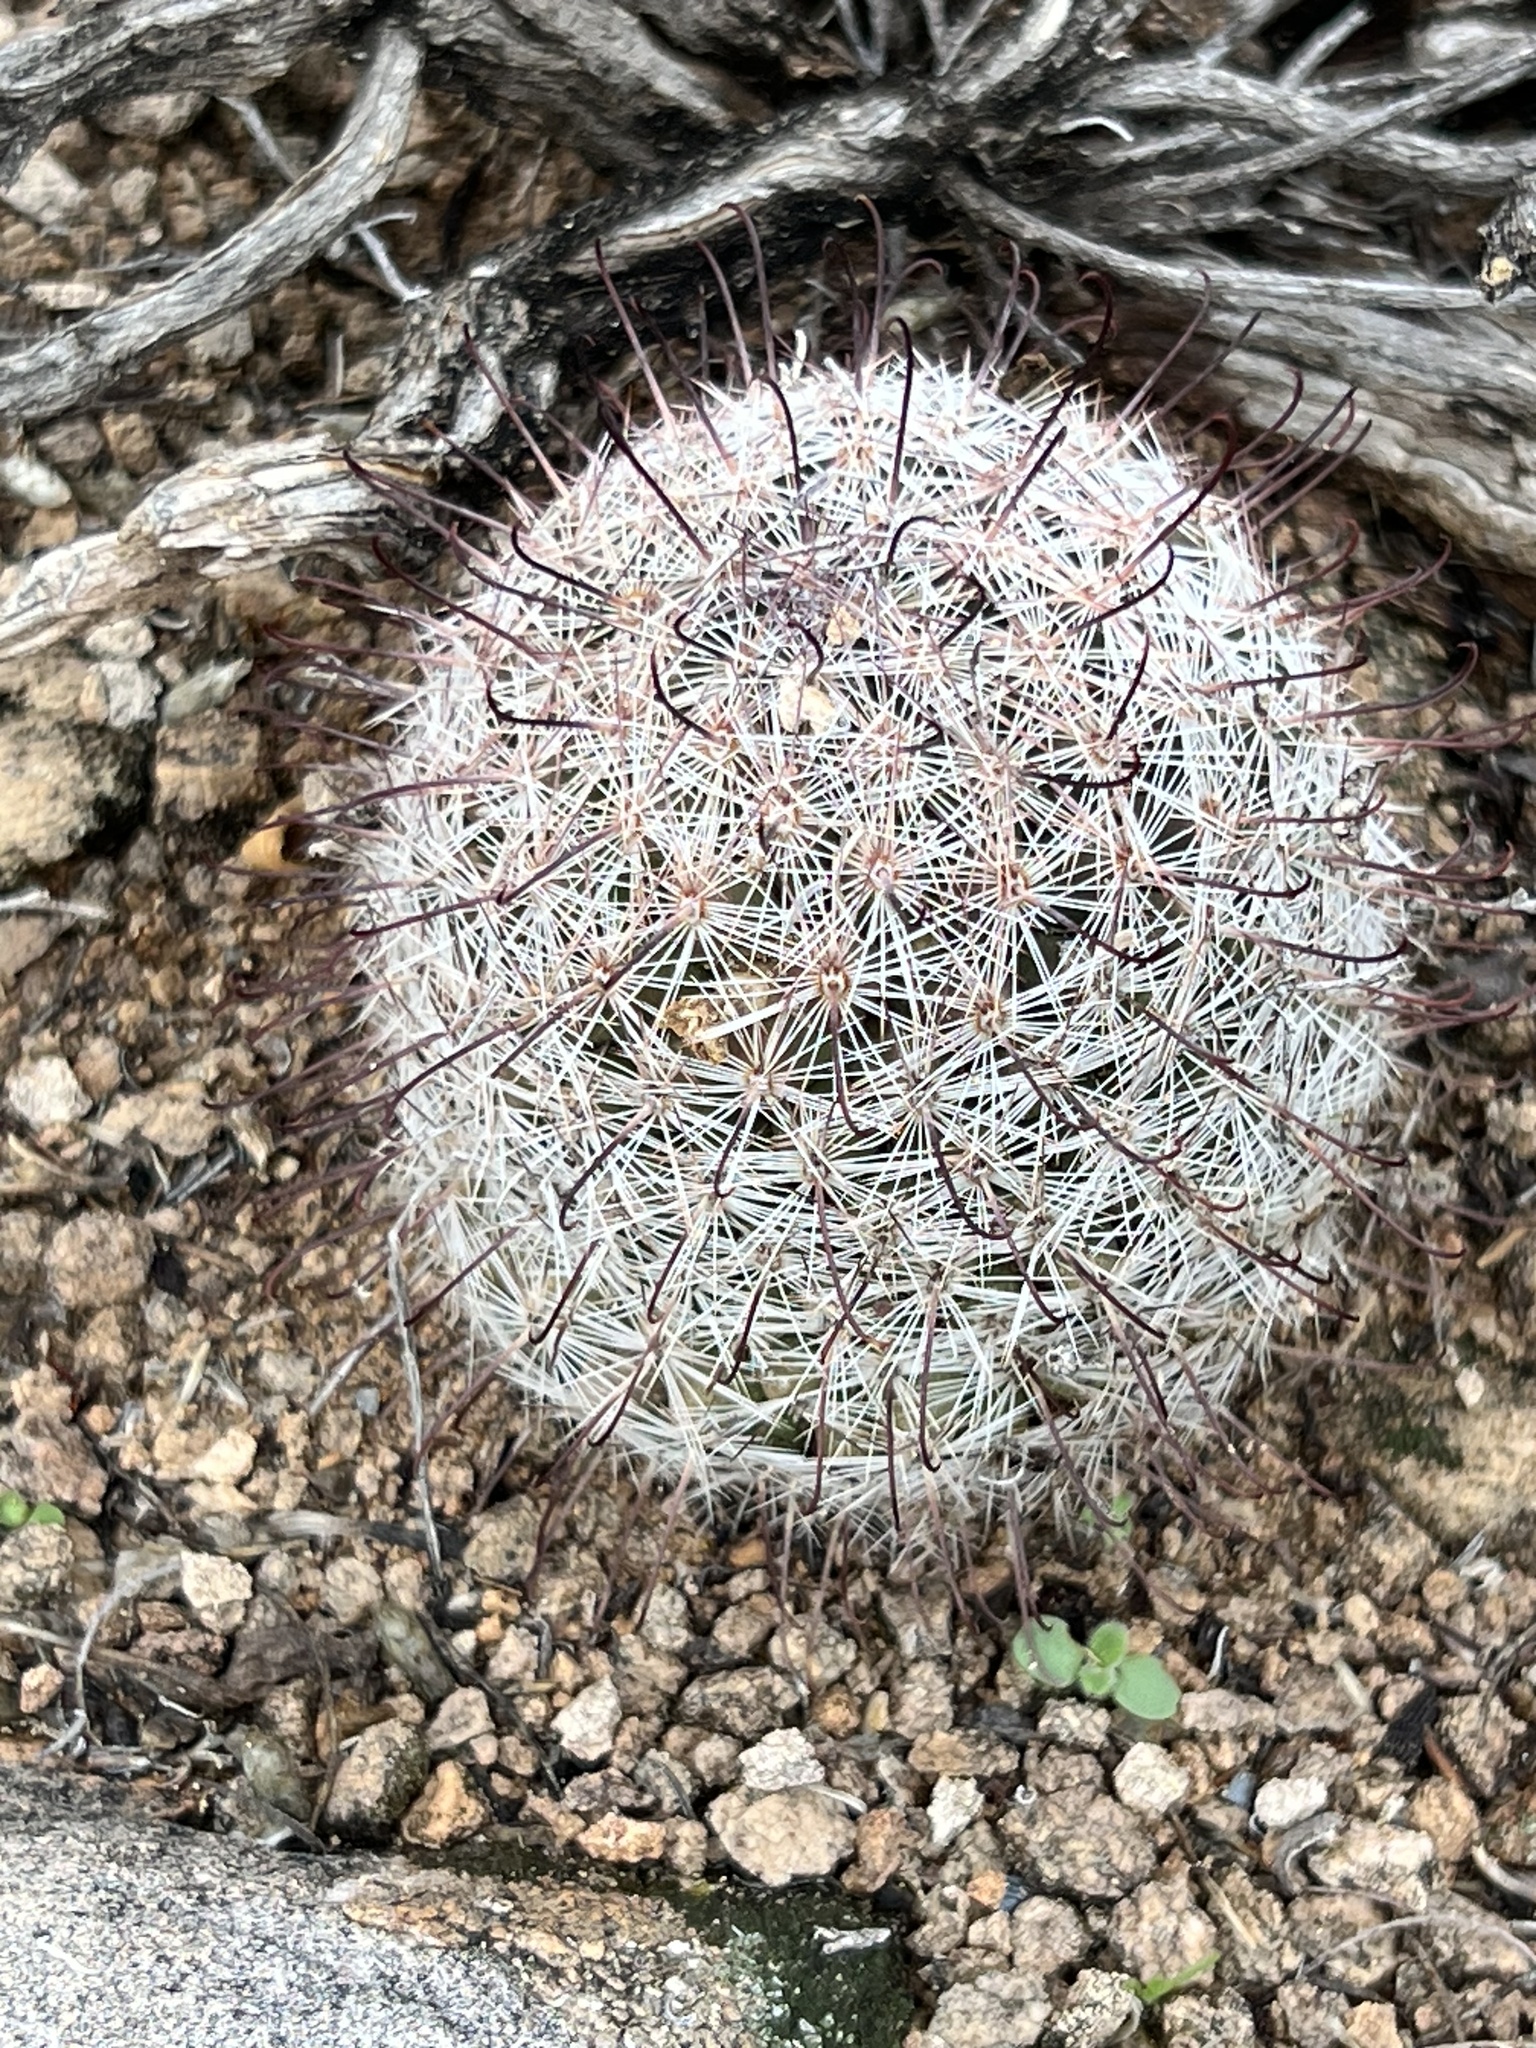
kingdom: Plantae
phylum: Tracheophyta
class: Magnoliopsida
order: Caryophyllales
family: Cactaceae
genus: Cochemiea
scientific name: Cochemiea grahamii
